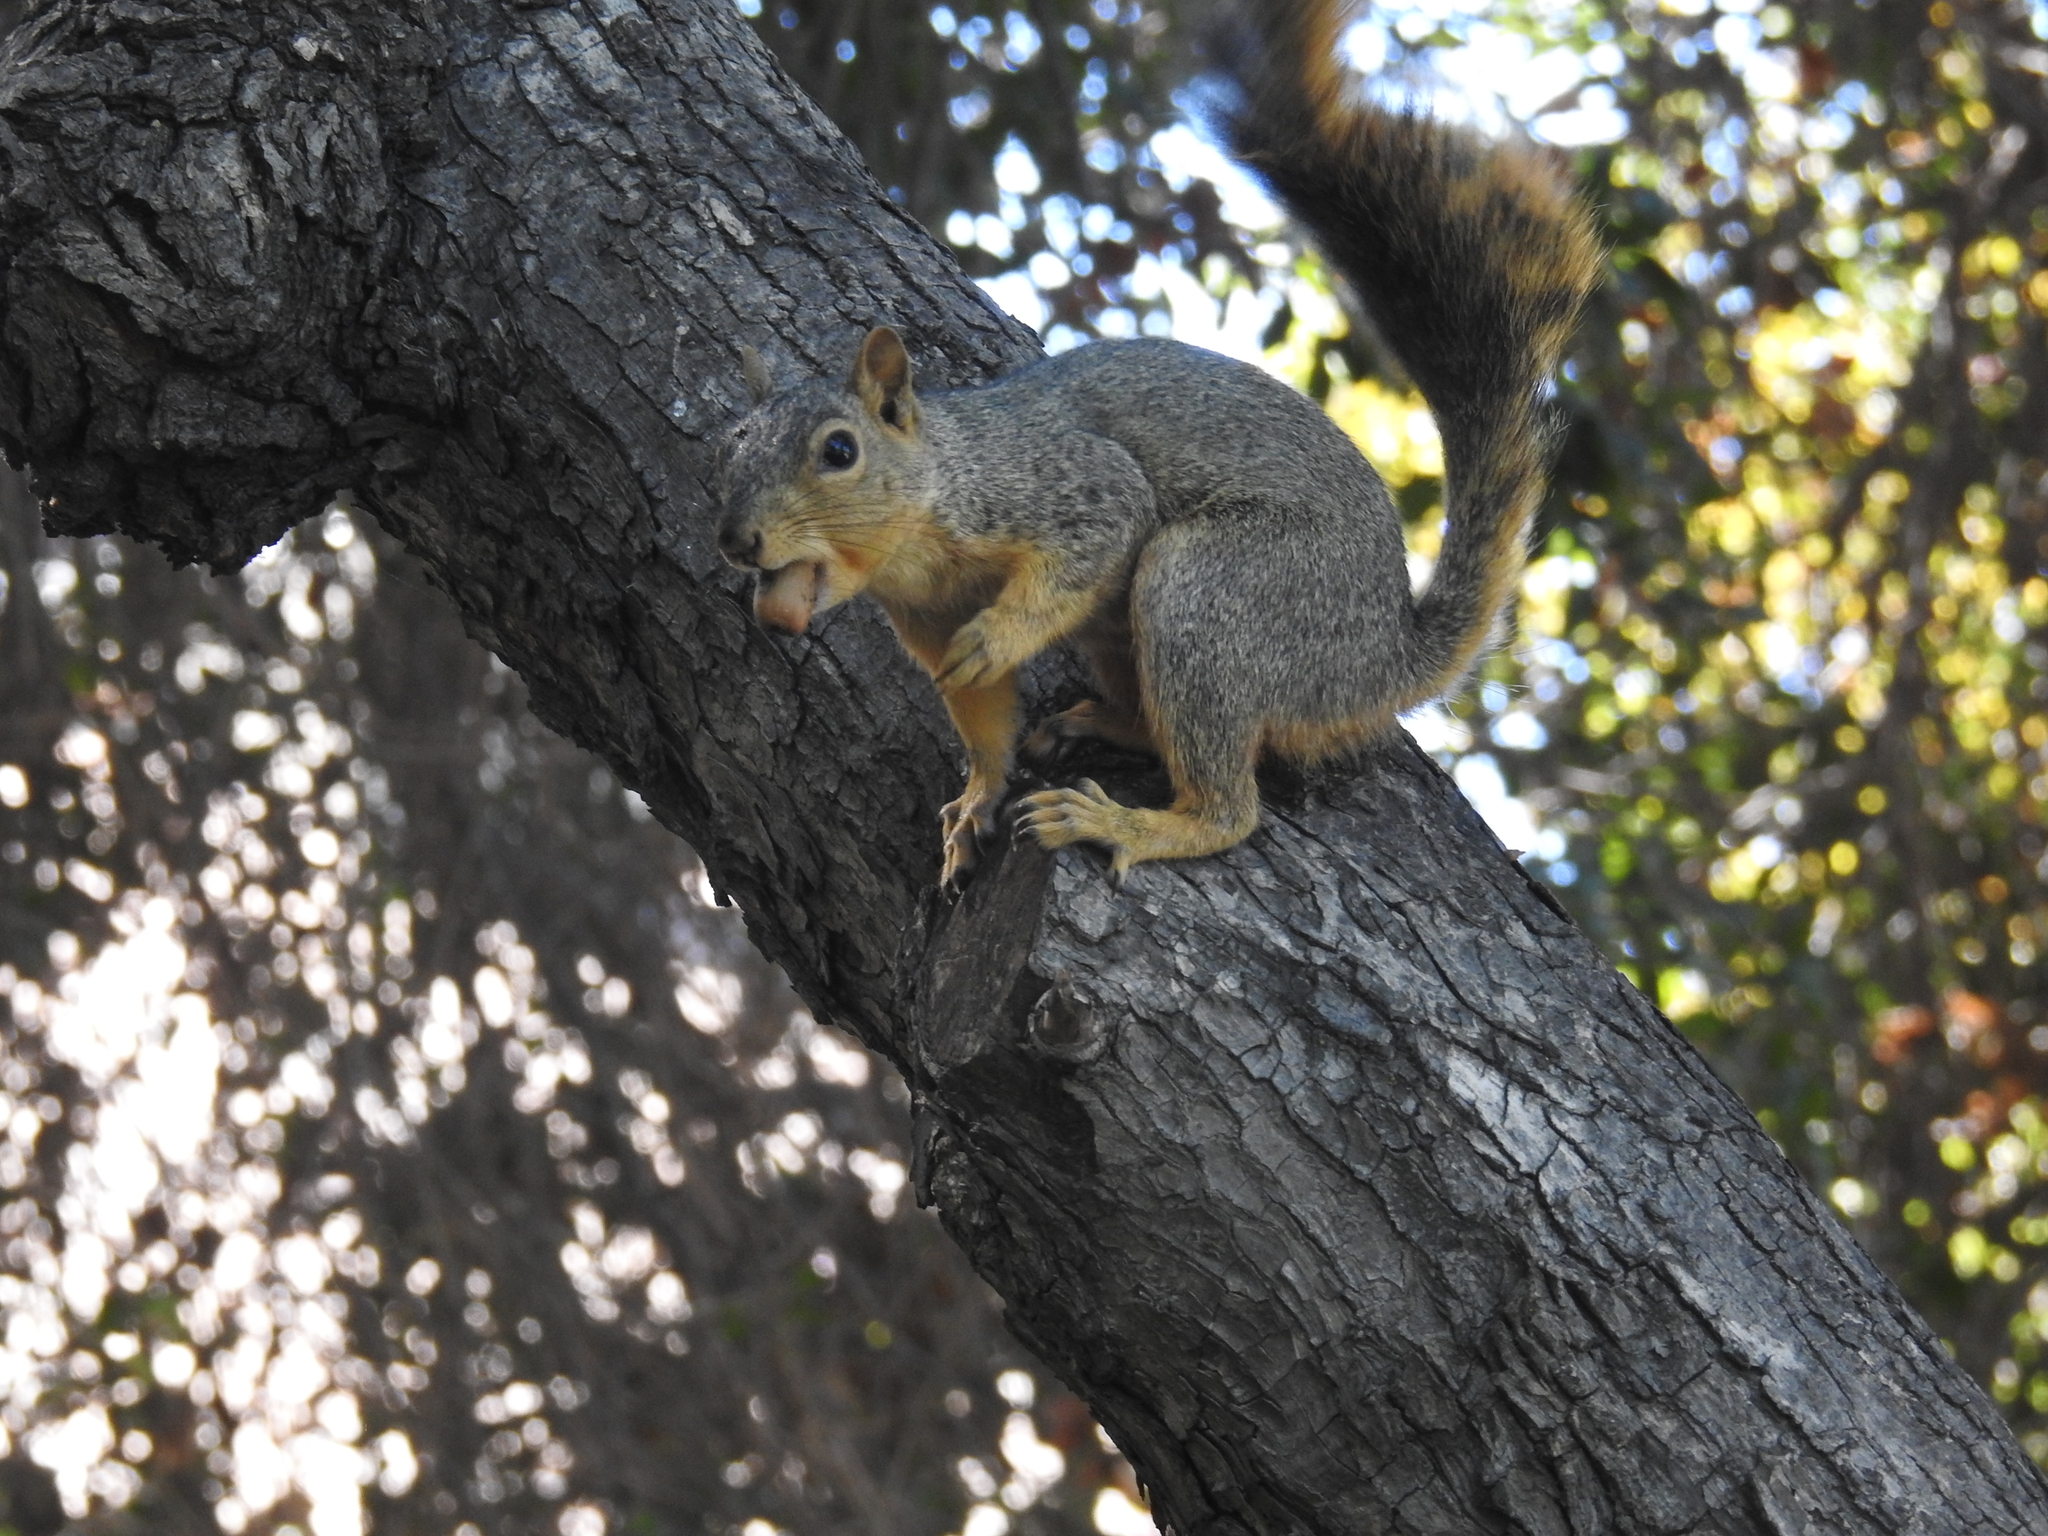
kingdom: Animalia
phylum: Chordata
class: Mammalia
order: Rodentia
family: Sciuridae
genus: Sciurus
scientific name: Sciurus niger
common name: Fox squirrel
